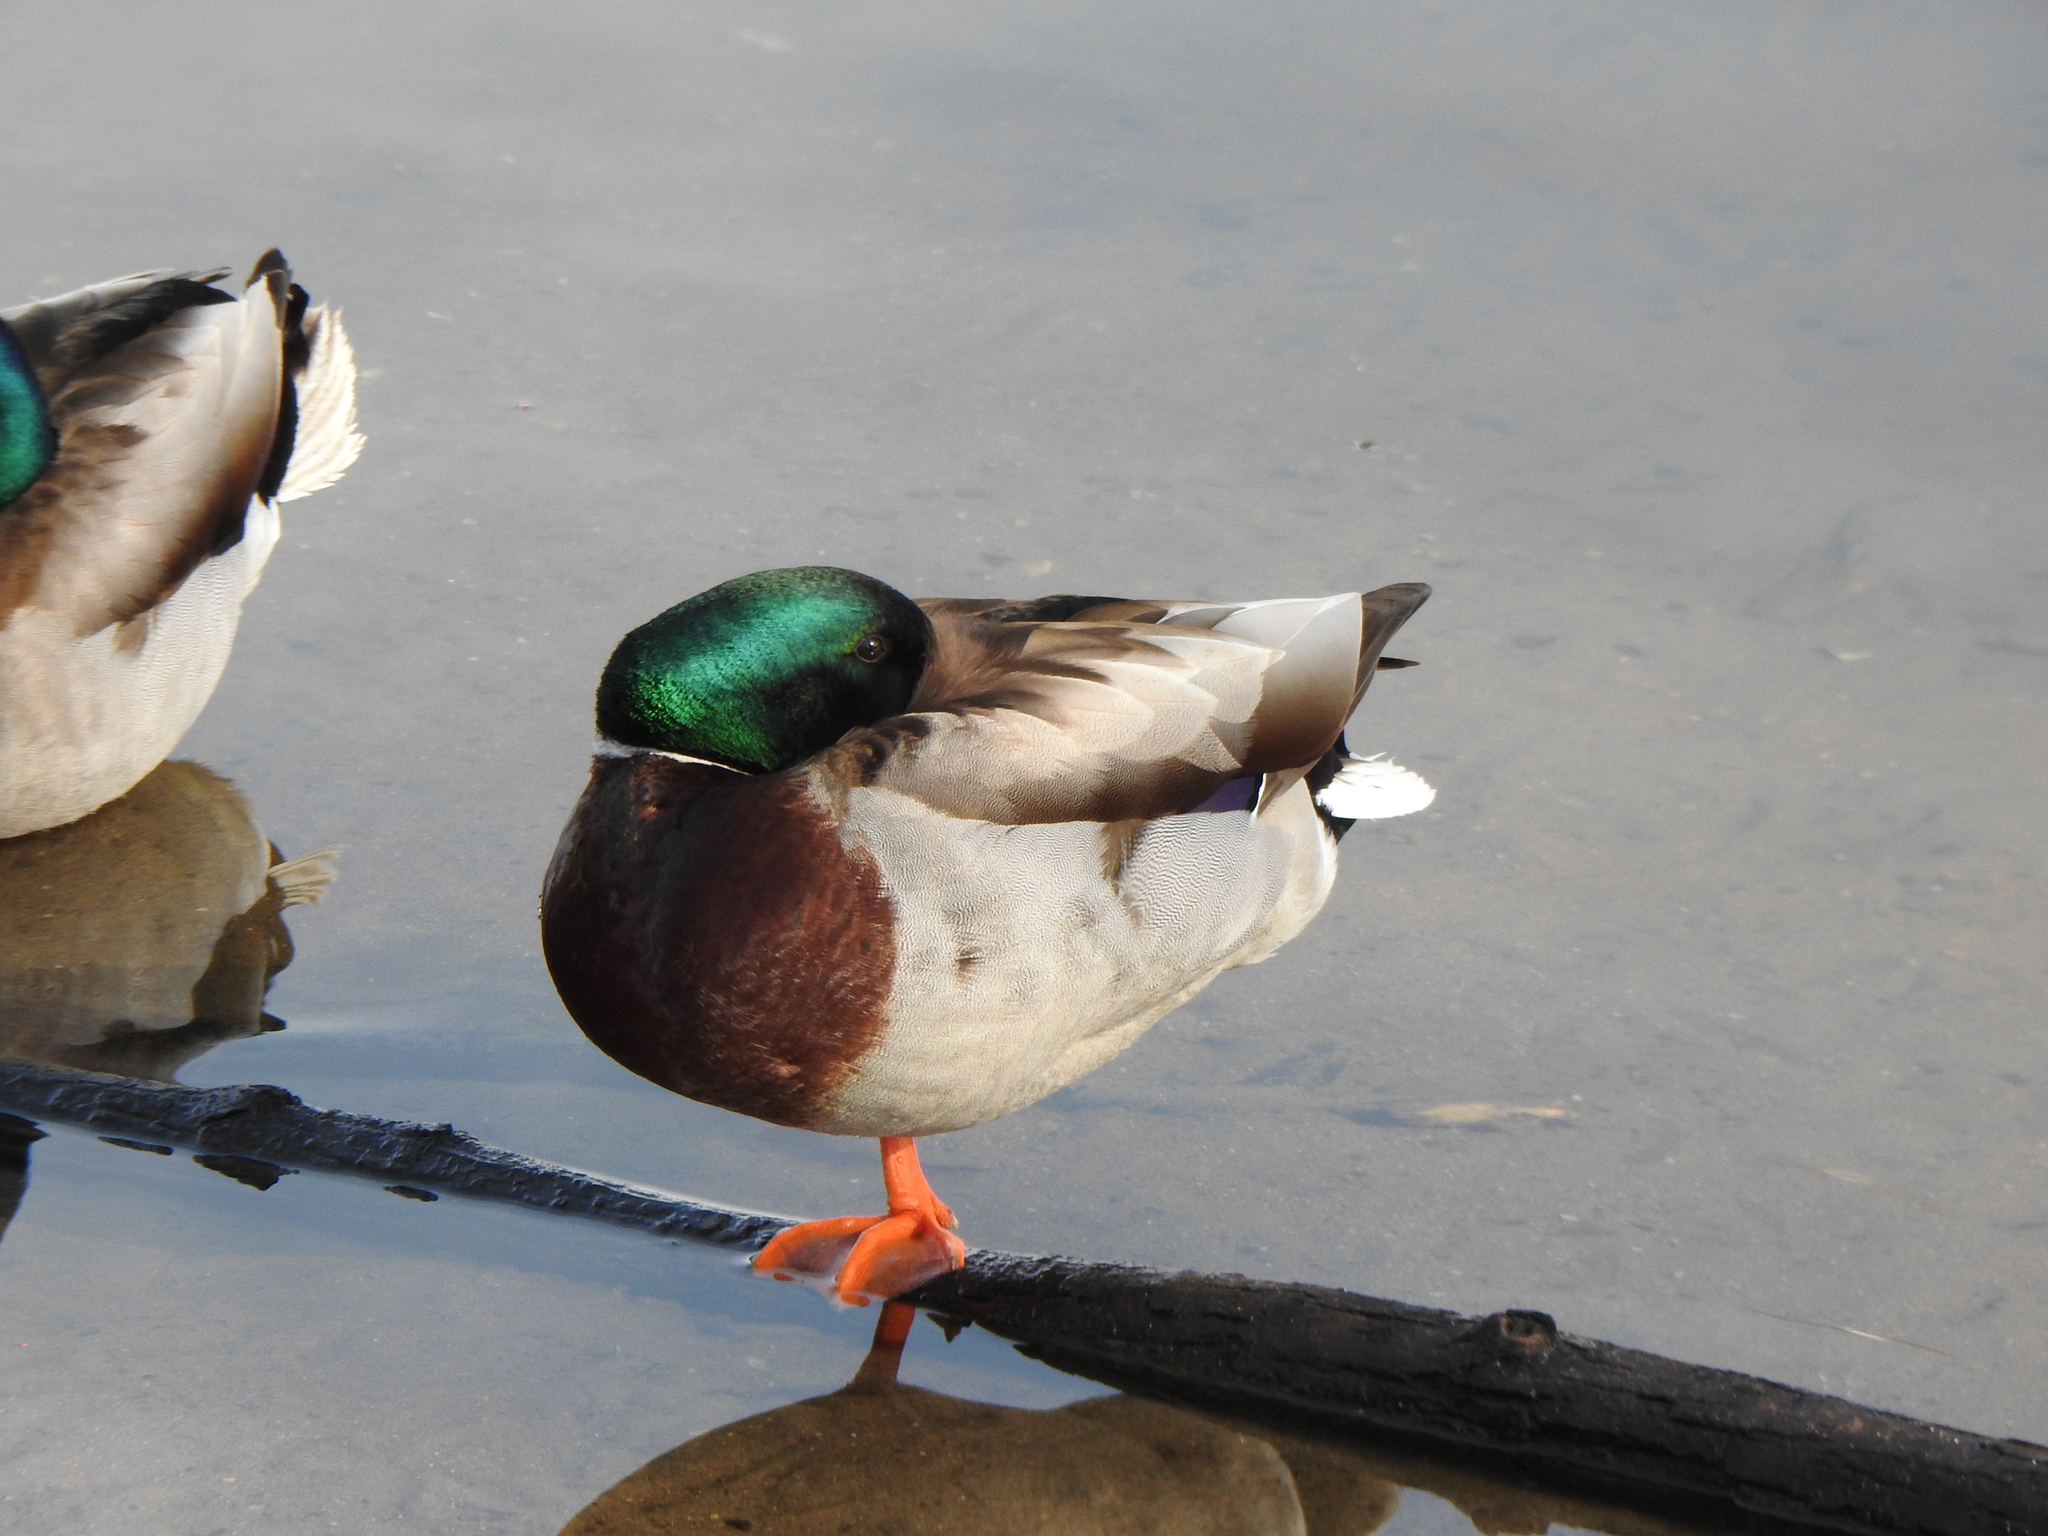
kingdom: Animalia
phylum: Chordata
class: Aves
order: Anseriformes
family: Anatidae
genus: Anas
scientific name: Anas platyrhynchos
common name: Mallard
